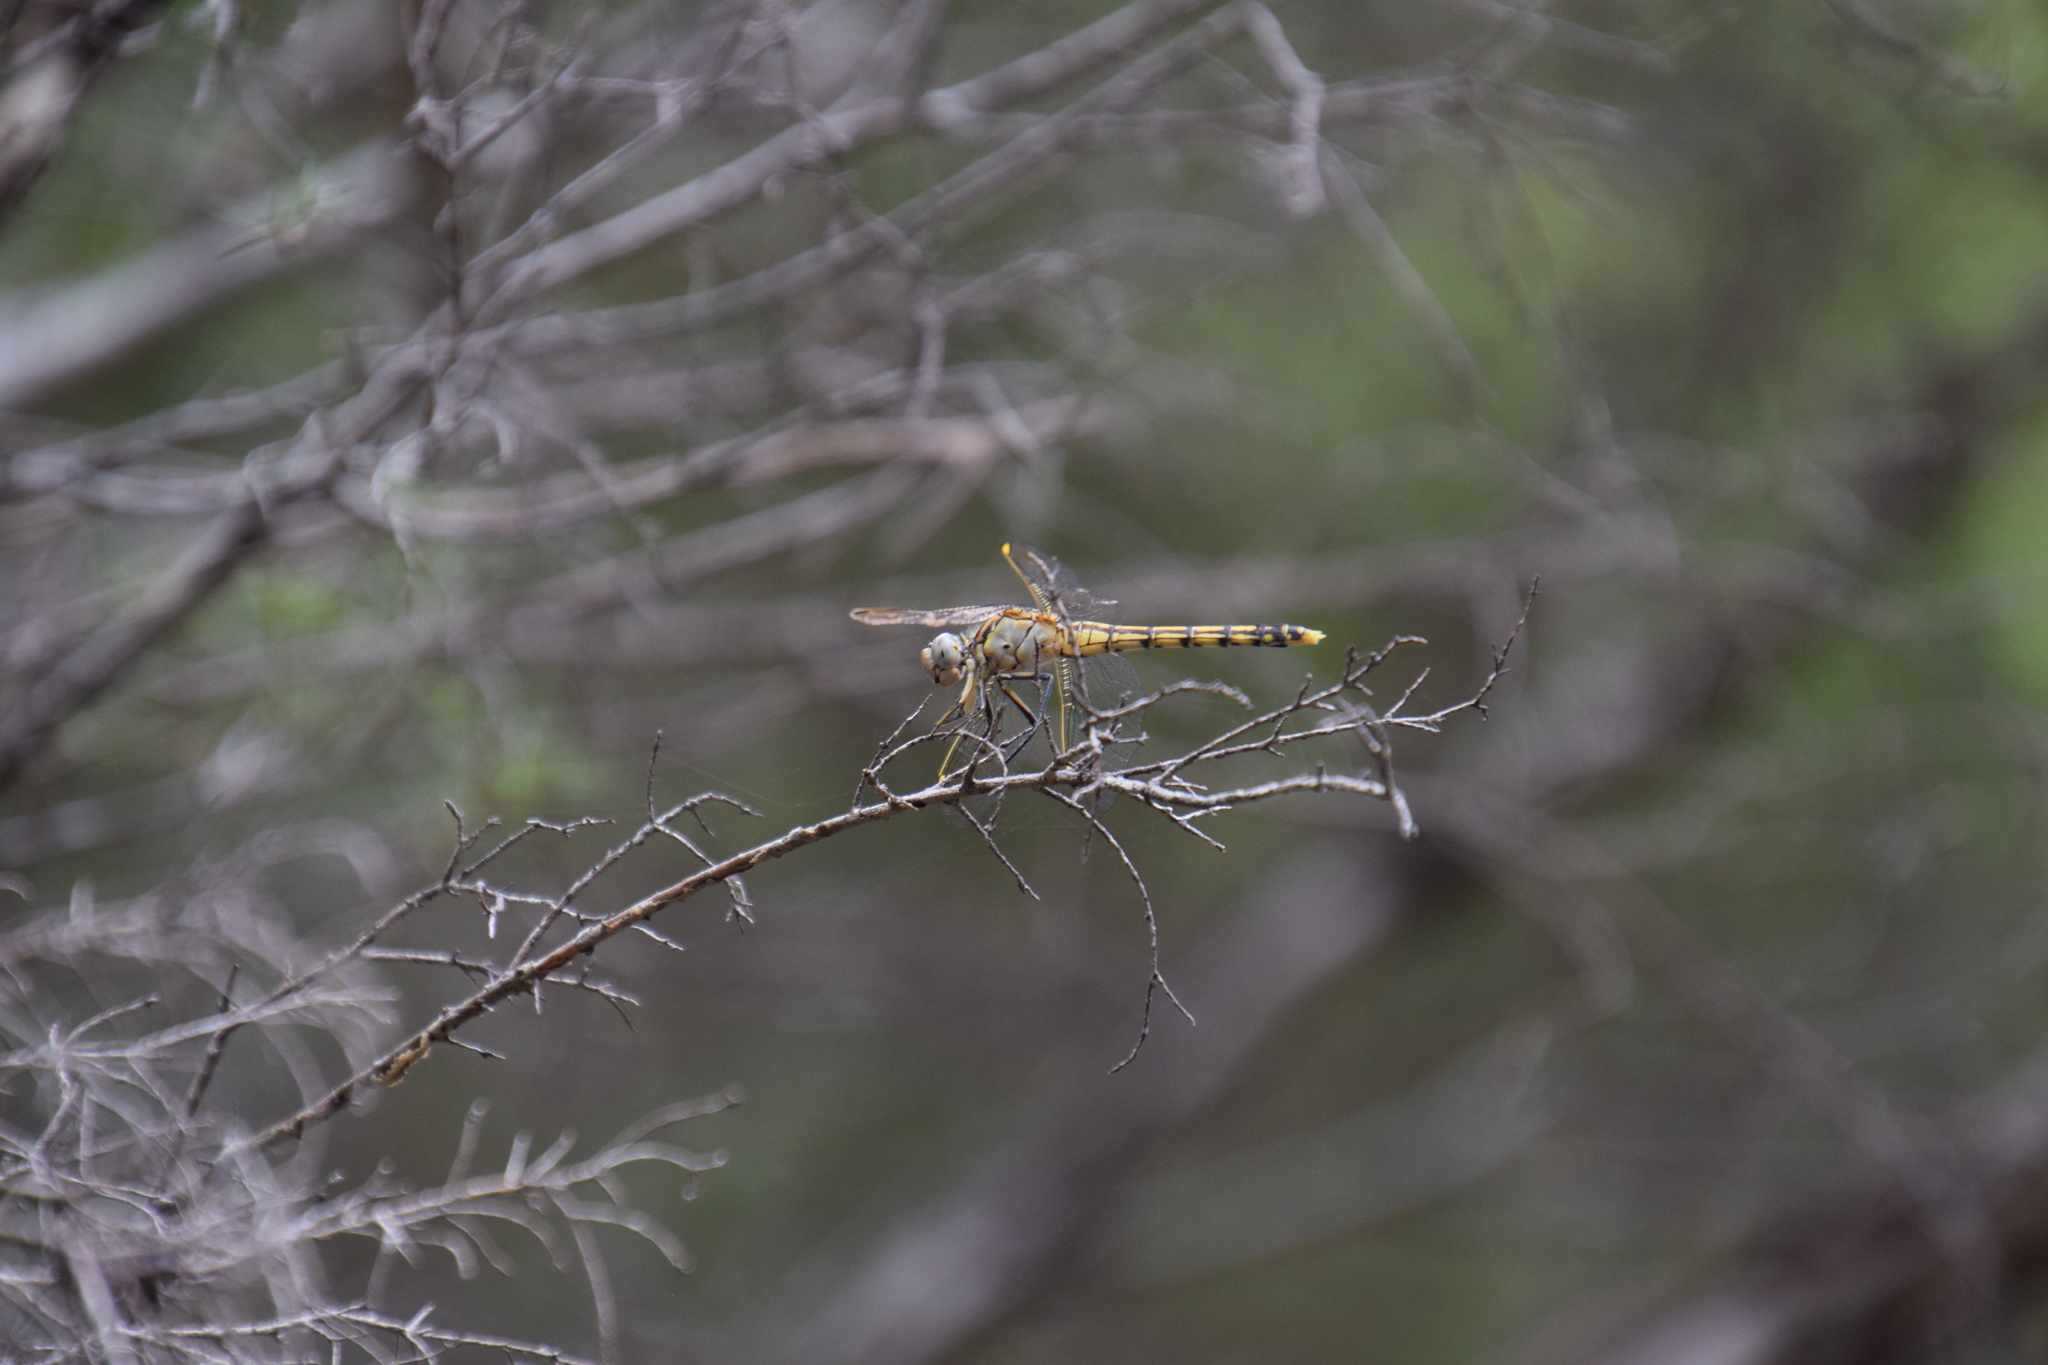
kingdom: Animalia
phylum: Arthropoda
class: Insecta
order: Odonata
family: Libellulidae
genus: Orthetrum
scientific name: Orthetrum caledonicum
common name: Blue skimmer
